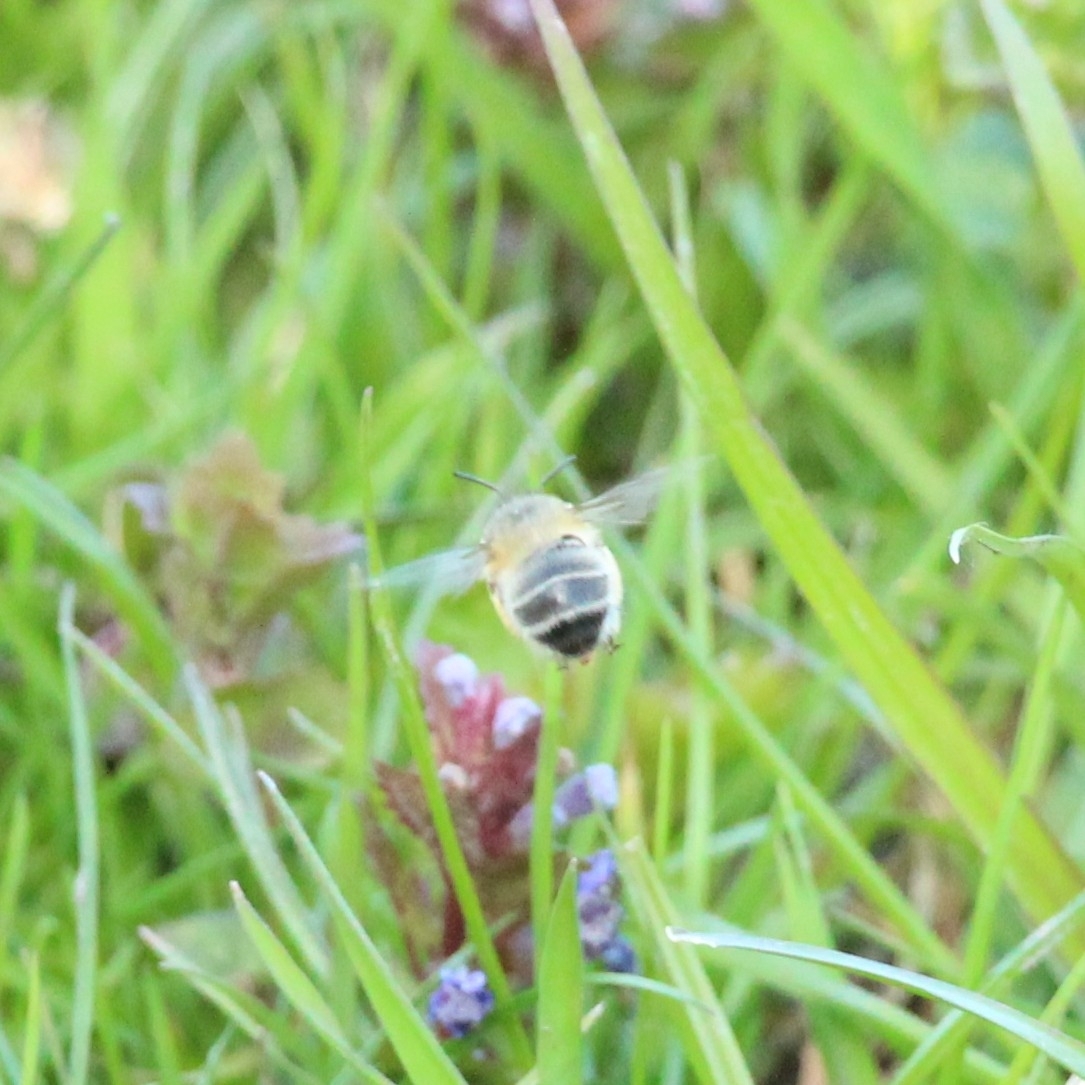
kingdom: Animalia
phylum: Arthropoda
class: Insecta
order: Hymenoptera
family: Apidae
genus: Anthophora
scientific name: Anthophora plumipes
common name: Hairy-footed flower bee
